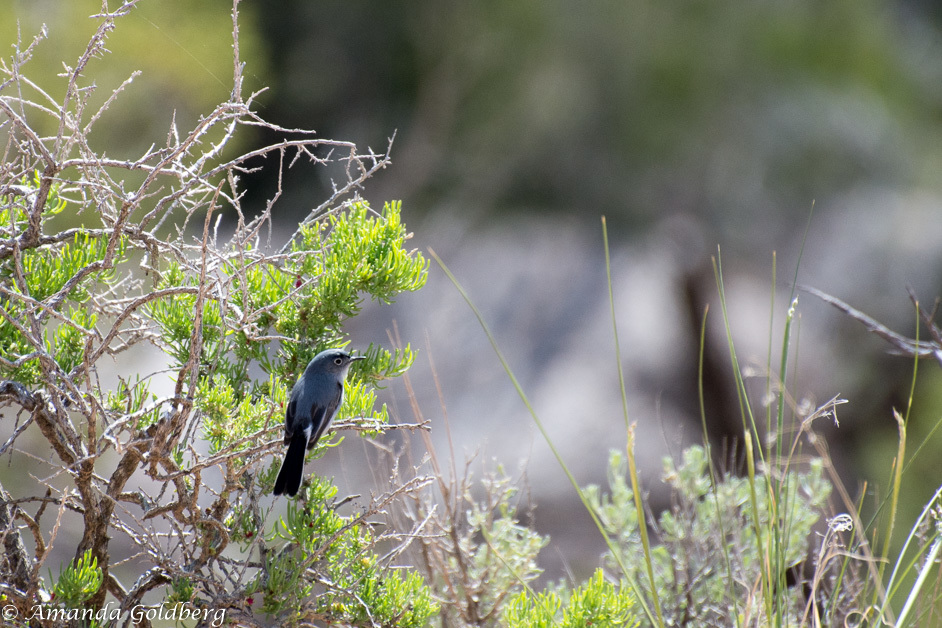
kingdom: Animalia
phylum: Chordata
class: Aves
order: Passeriformes
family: Polioptilidae
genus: Polioptila
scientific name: Polioptila caerulea
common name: Blue-gray gnatcatcher
